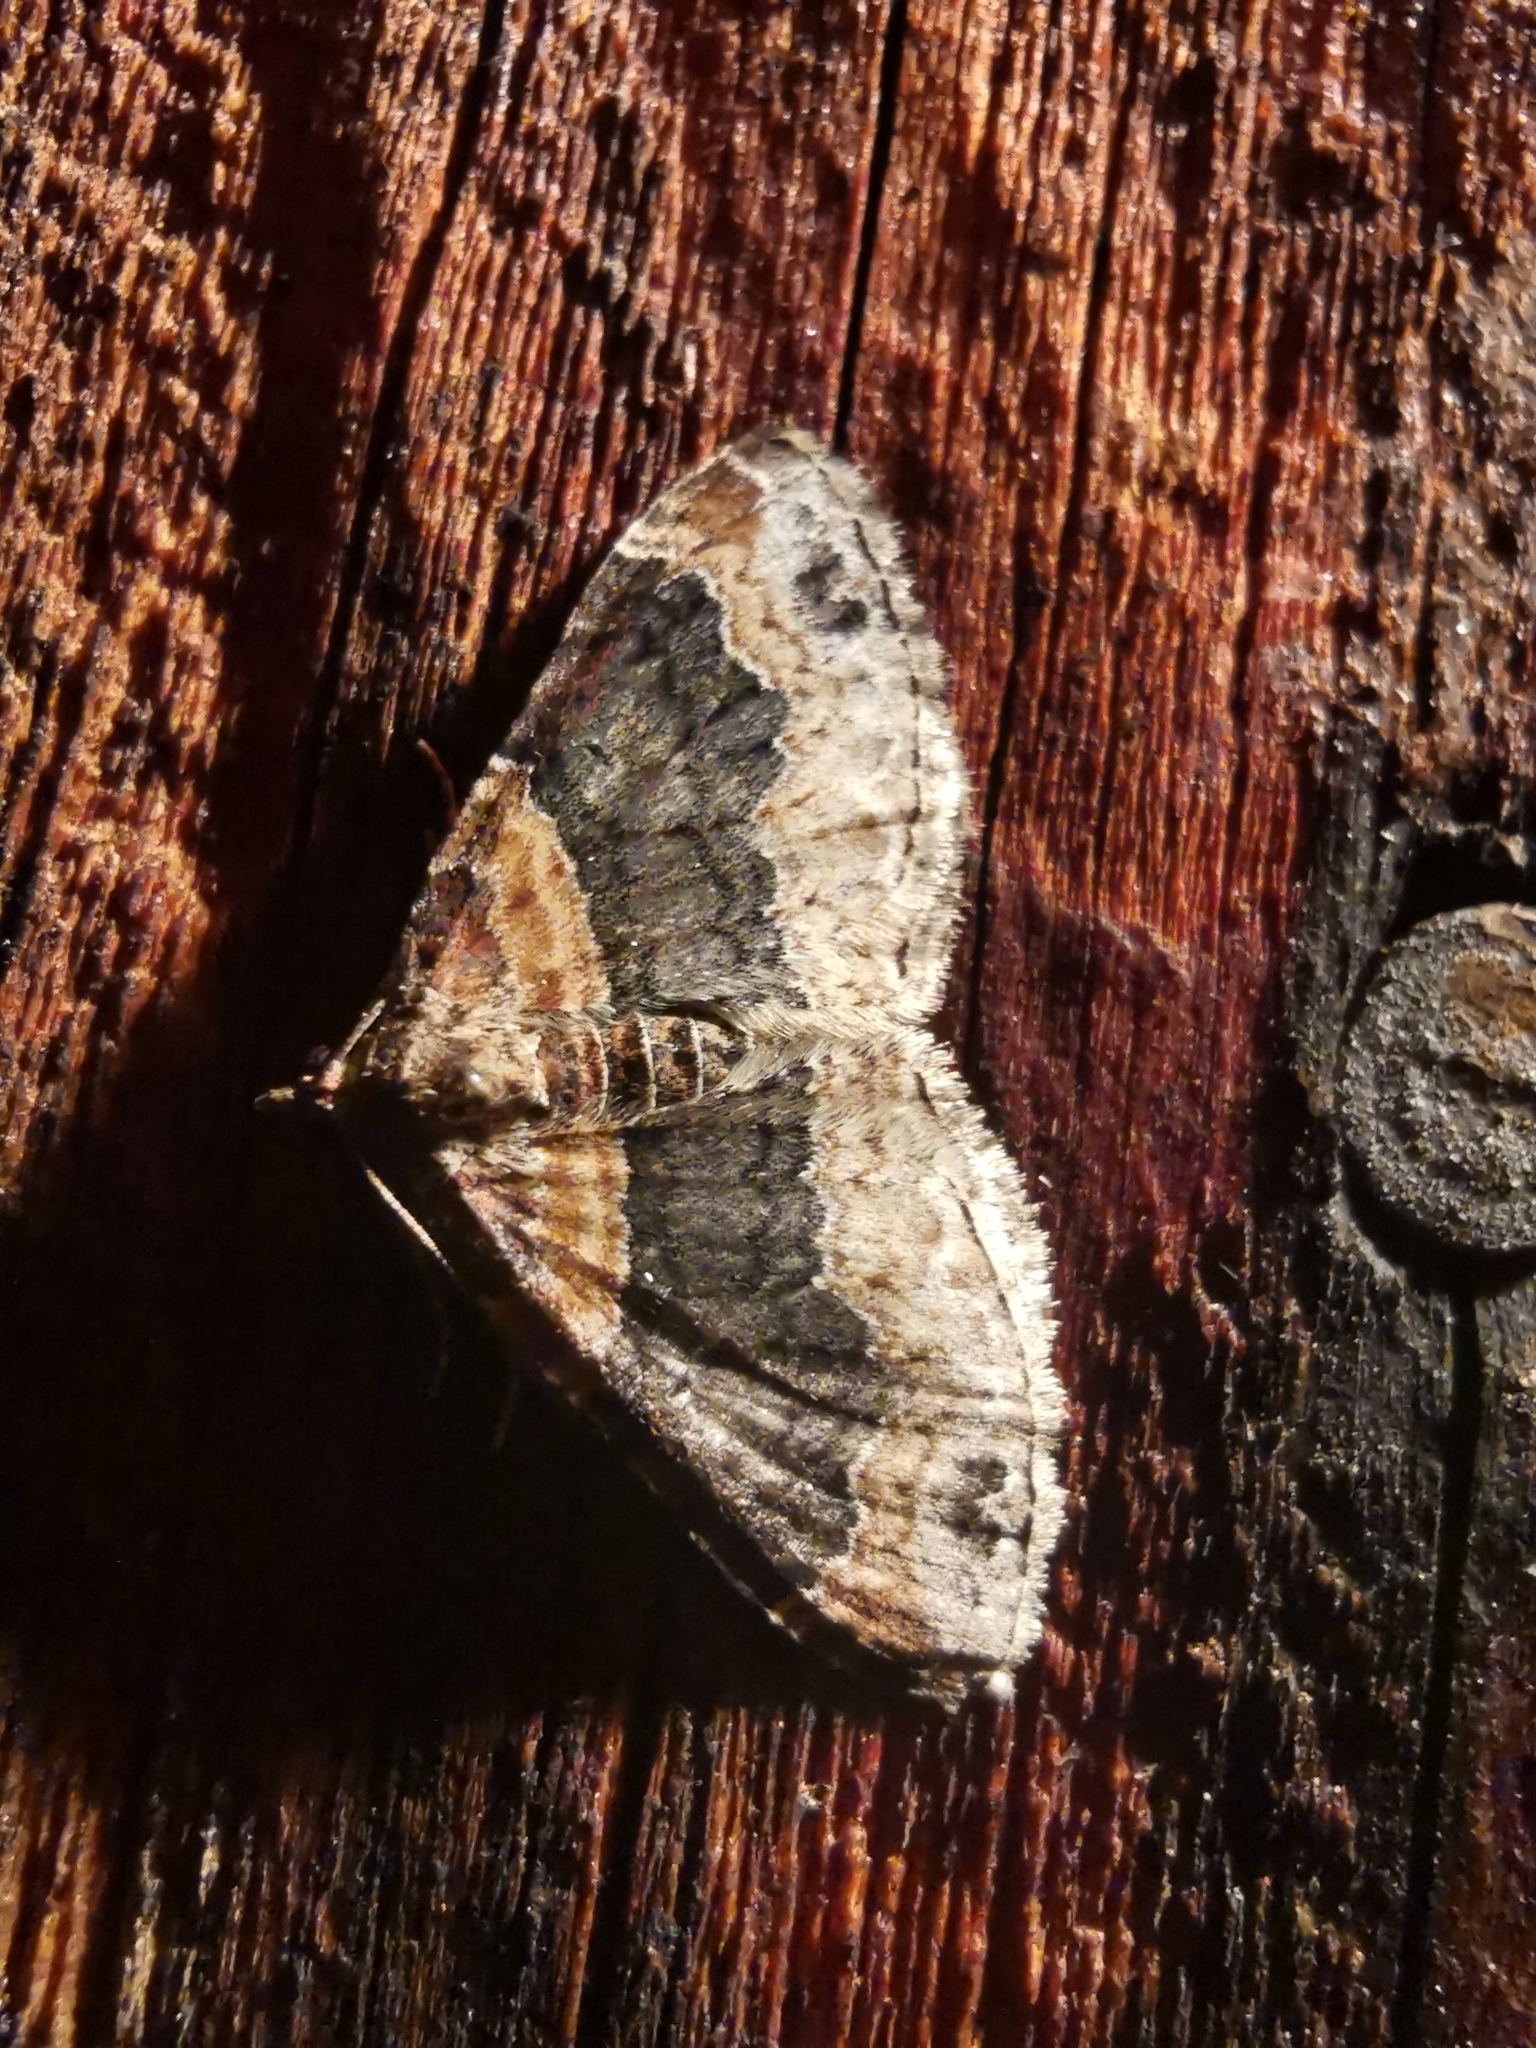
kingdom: Animalia
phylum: Arthropoda
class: Insecta
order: Lepidoptera
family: Geometridae
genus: Xanthorhoe
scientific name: Xanthorhoe ferrugata
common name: Dark-barred twin-spot carpet
